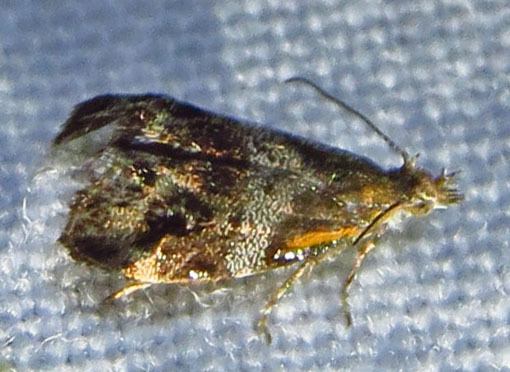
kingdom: Animalia
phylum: Arthropoda
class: Insecta
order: Lepidoptera
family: Choreutidae
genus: Tebenna
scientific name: Tebenna gnaphaliella
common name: Everlasting tebenna moth
